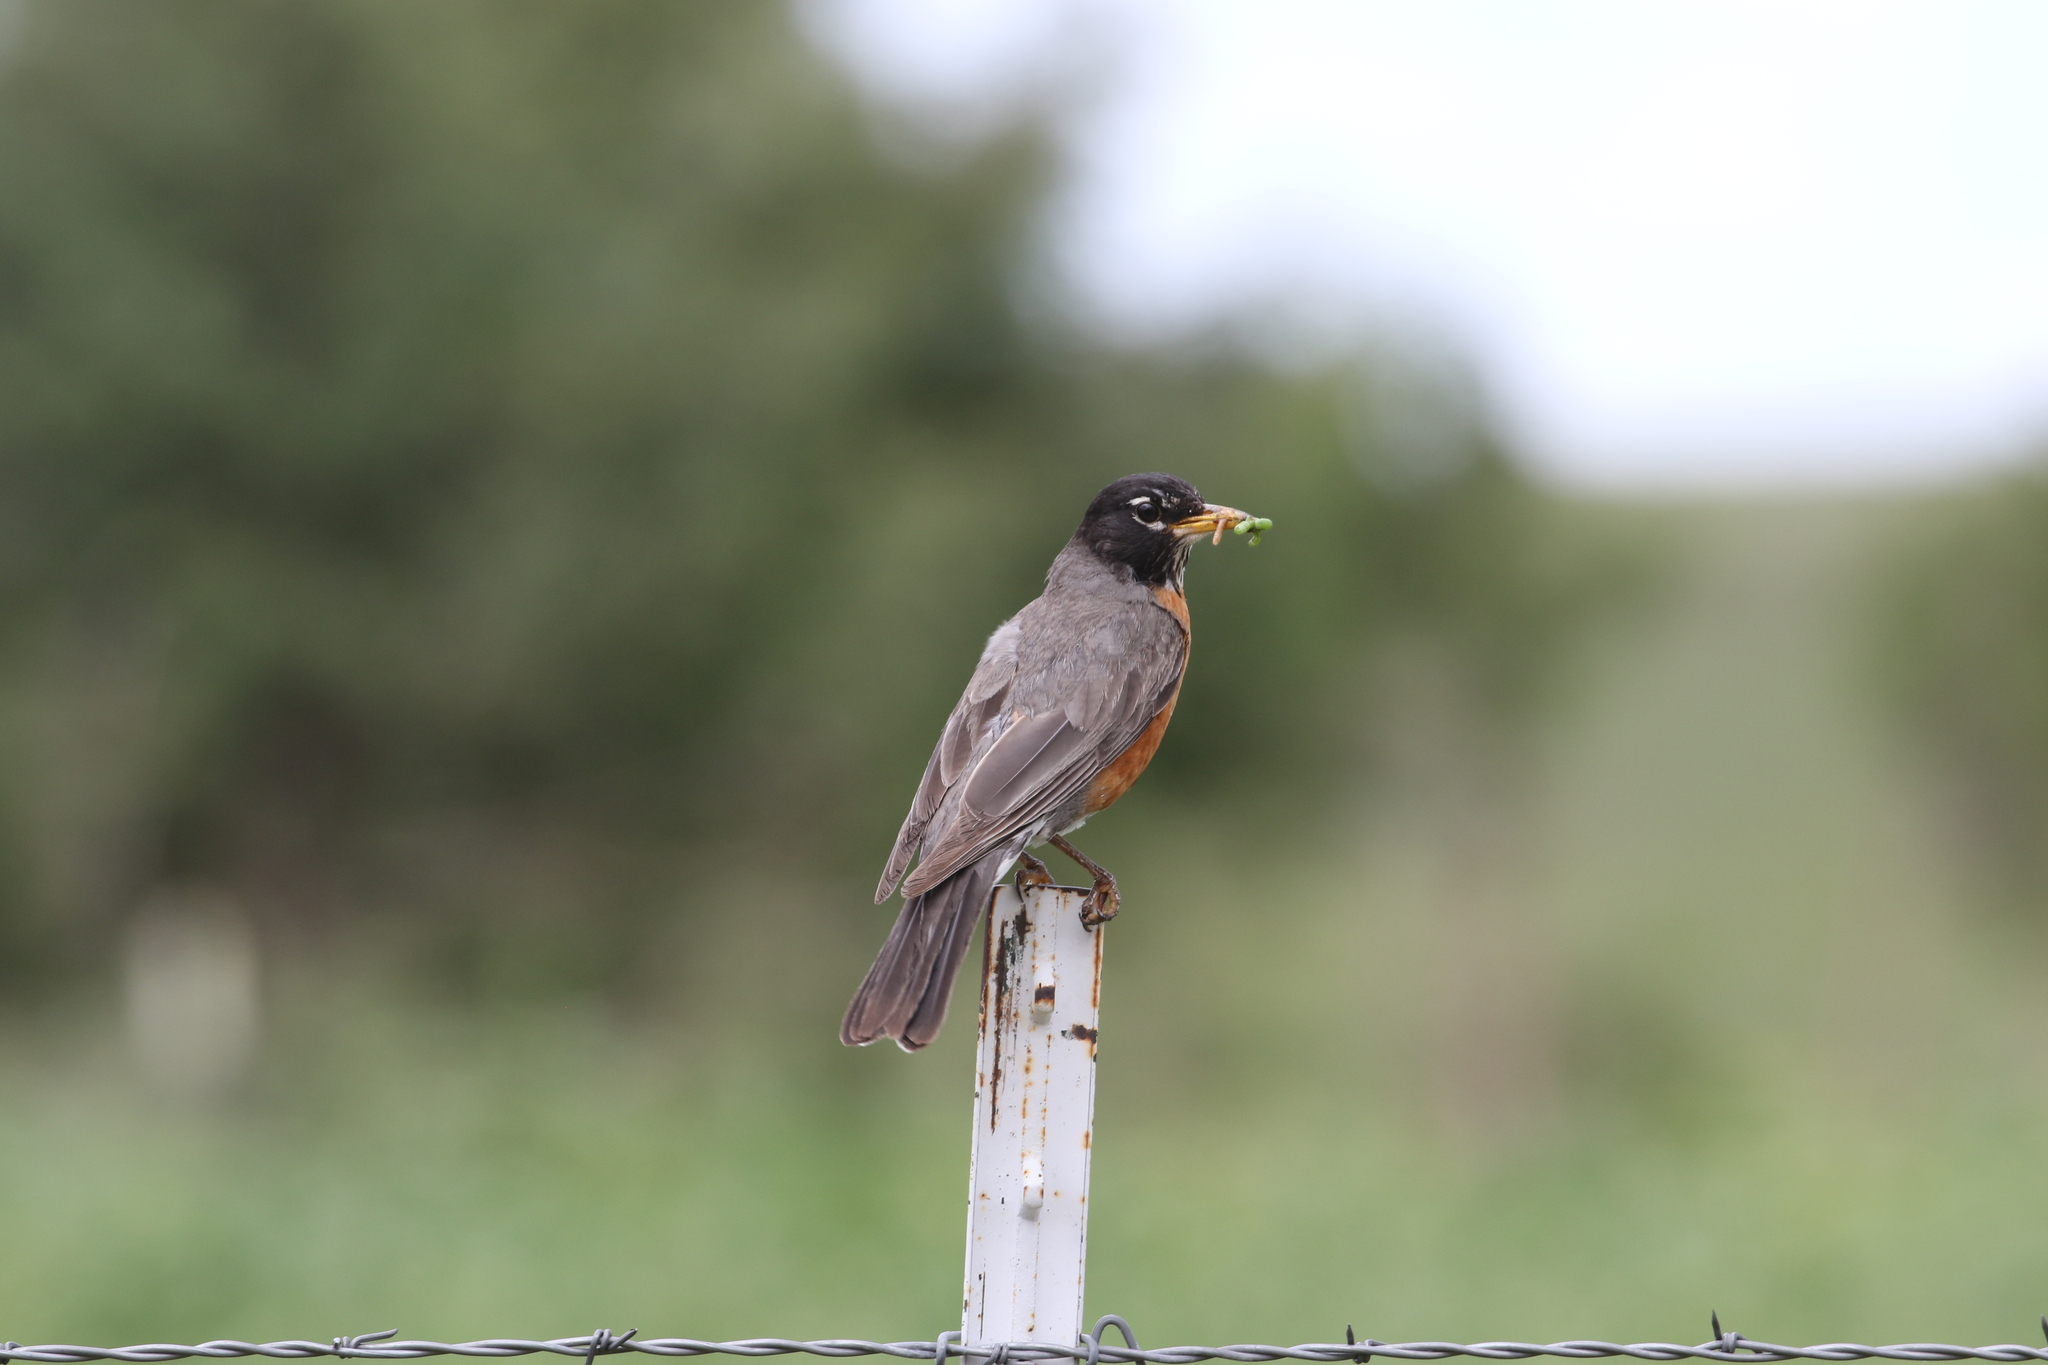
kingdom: Animalia
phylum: Chordata
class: Aves
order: Passeriformes
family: Turdidae
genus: Turdus
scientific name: Turdus migratorius
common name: American robin
